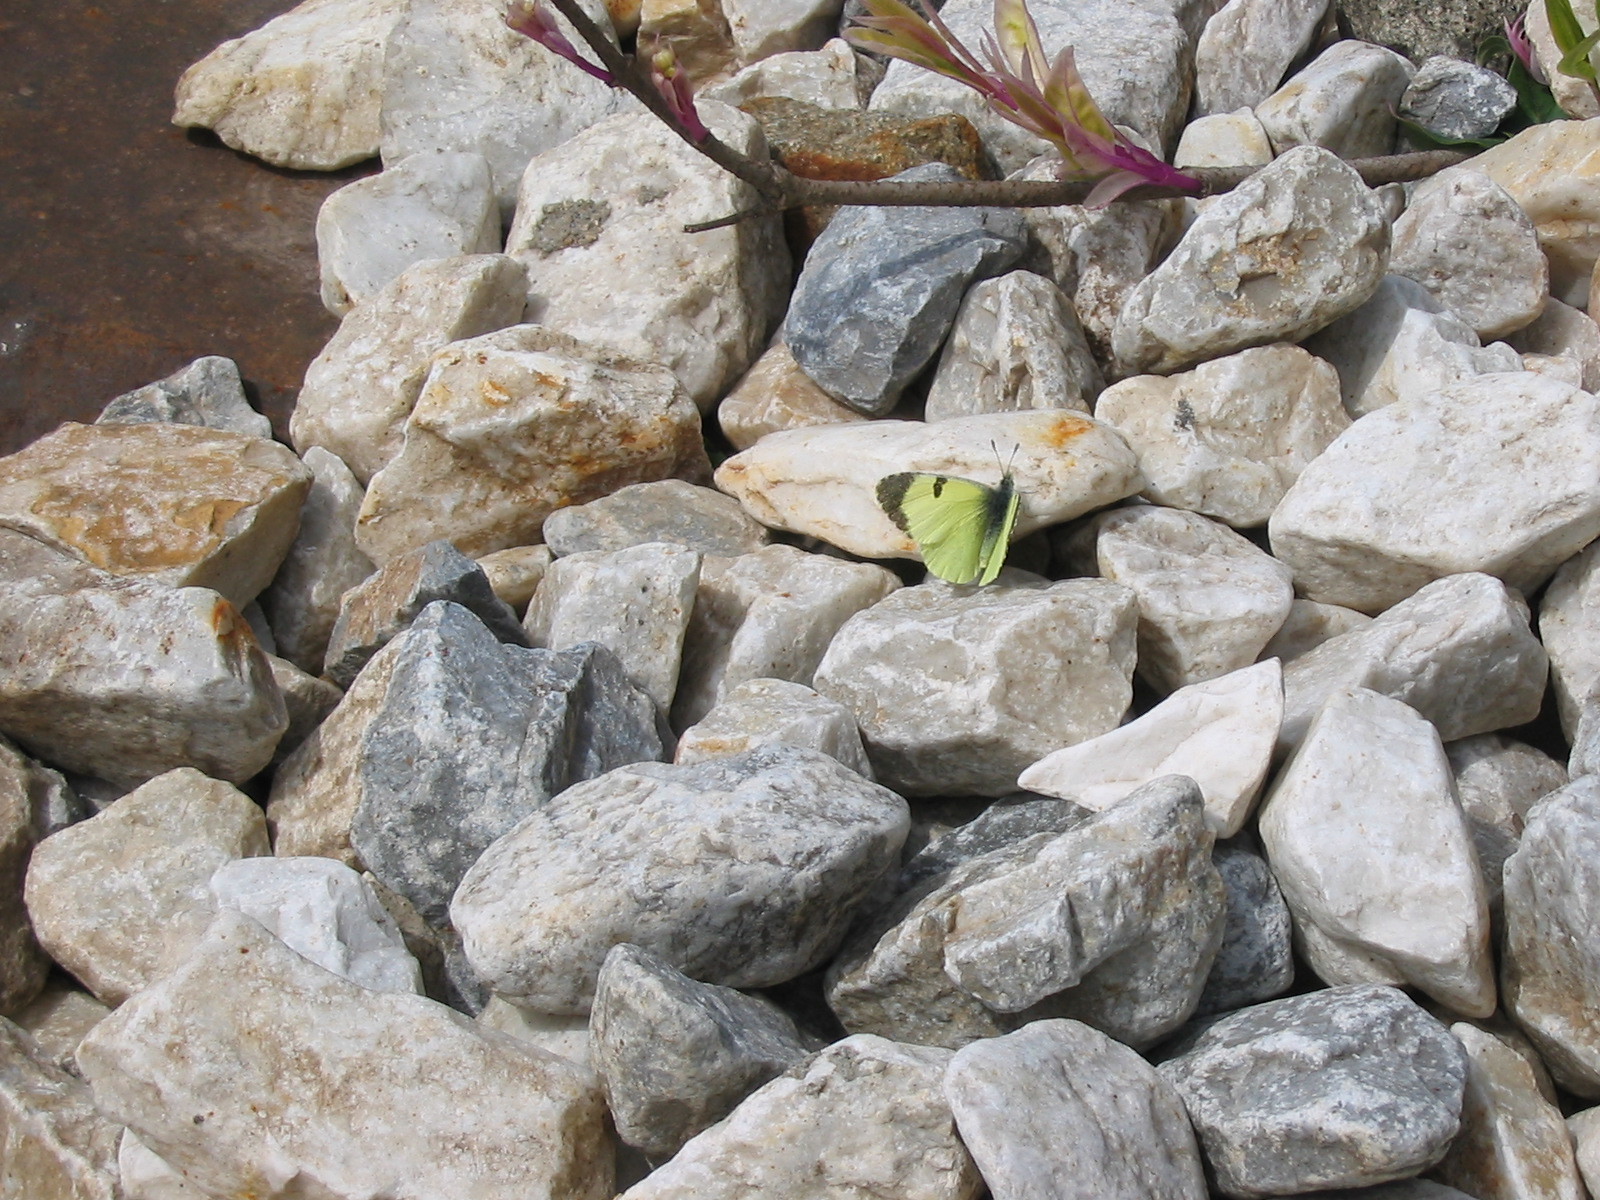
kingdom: Animalia
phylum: Arthropoda
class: Insecta
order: Lepidoptera
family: Pieridae
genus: Elphinstonia
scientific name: Elphinstonia penia
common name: Eastern greenish black-tip
